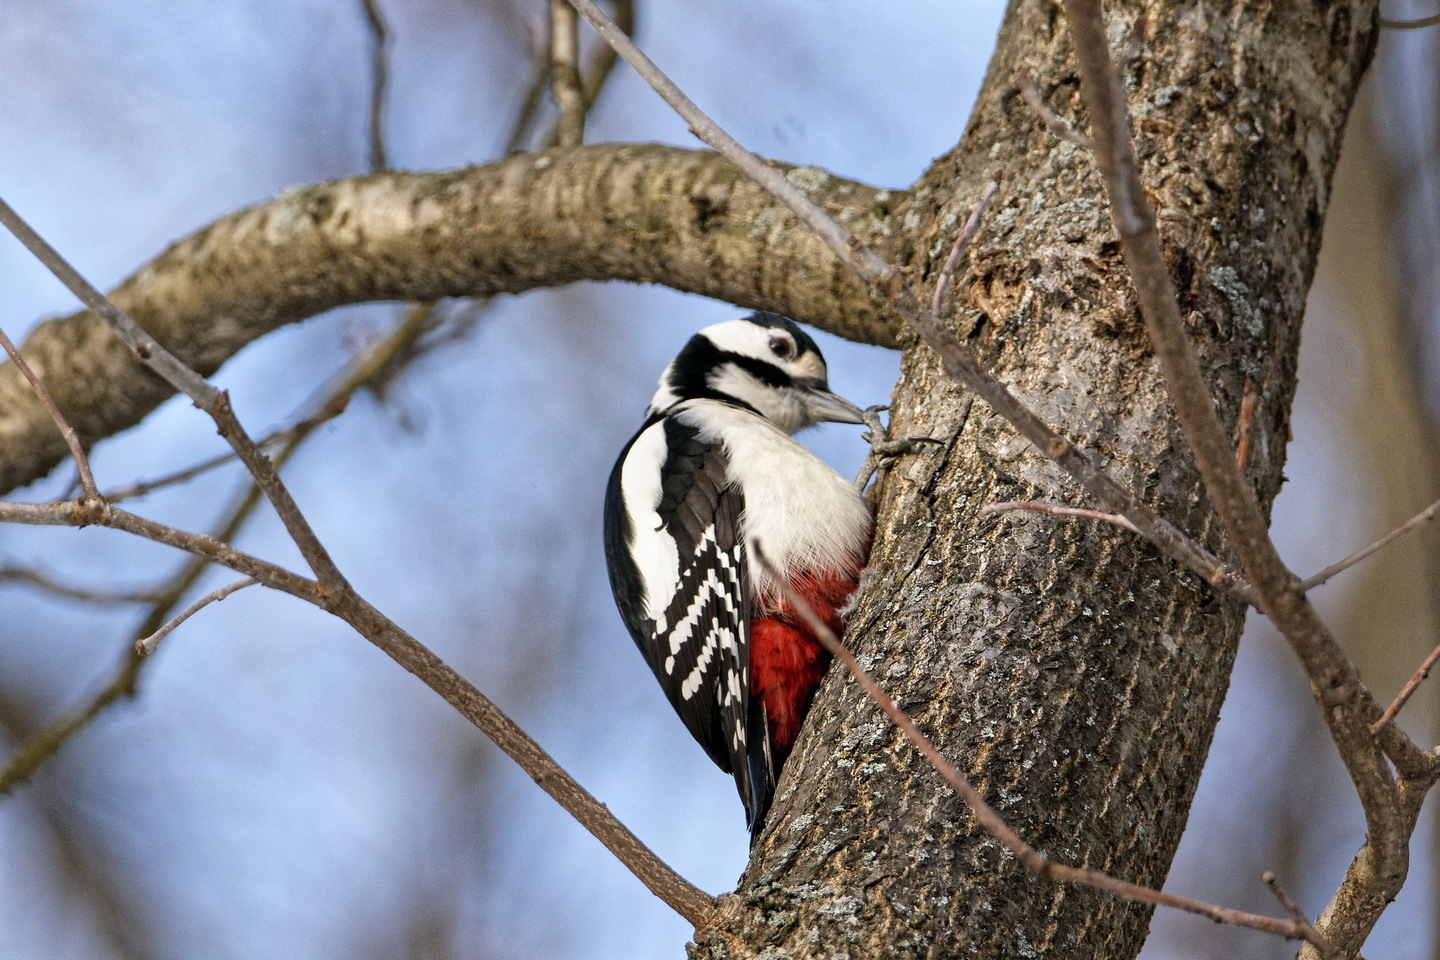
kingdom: Animalia
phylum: Chordata
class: Aves
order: Piciformes
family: Picidae
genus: Dendrocopos
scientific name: Dendrocopos major
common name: Great spotted woodpecker
